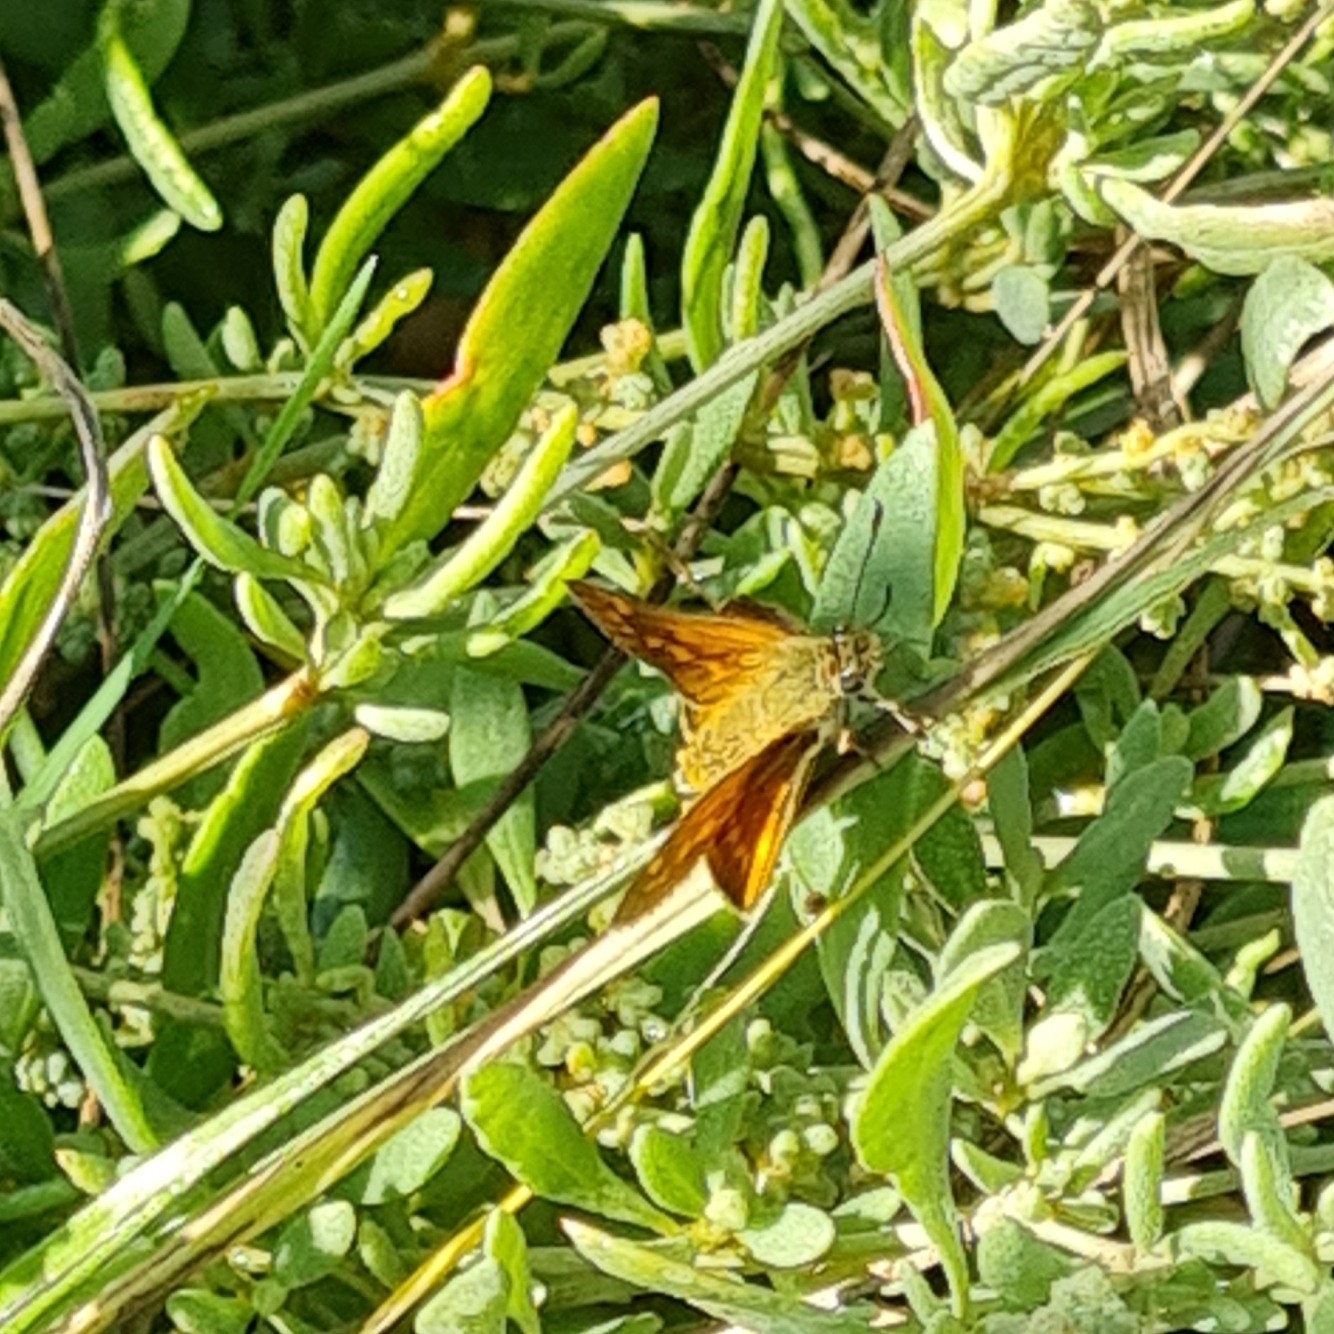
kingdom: Animalia
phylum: Arthropoda
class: Insecta
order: Lepidoptera
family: Hesperiidae
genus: Ochlodes
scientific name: Ochlodes venata
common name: Large skipper
